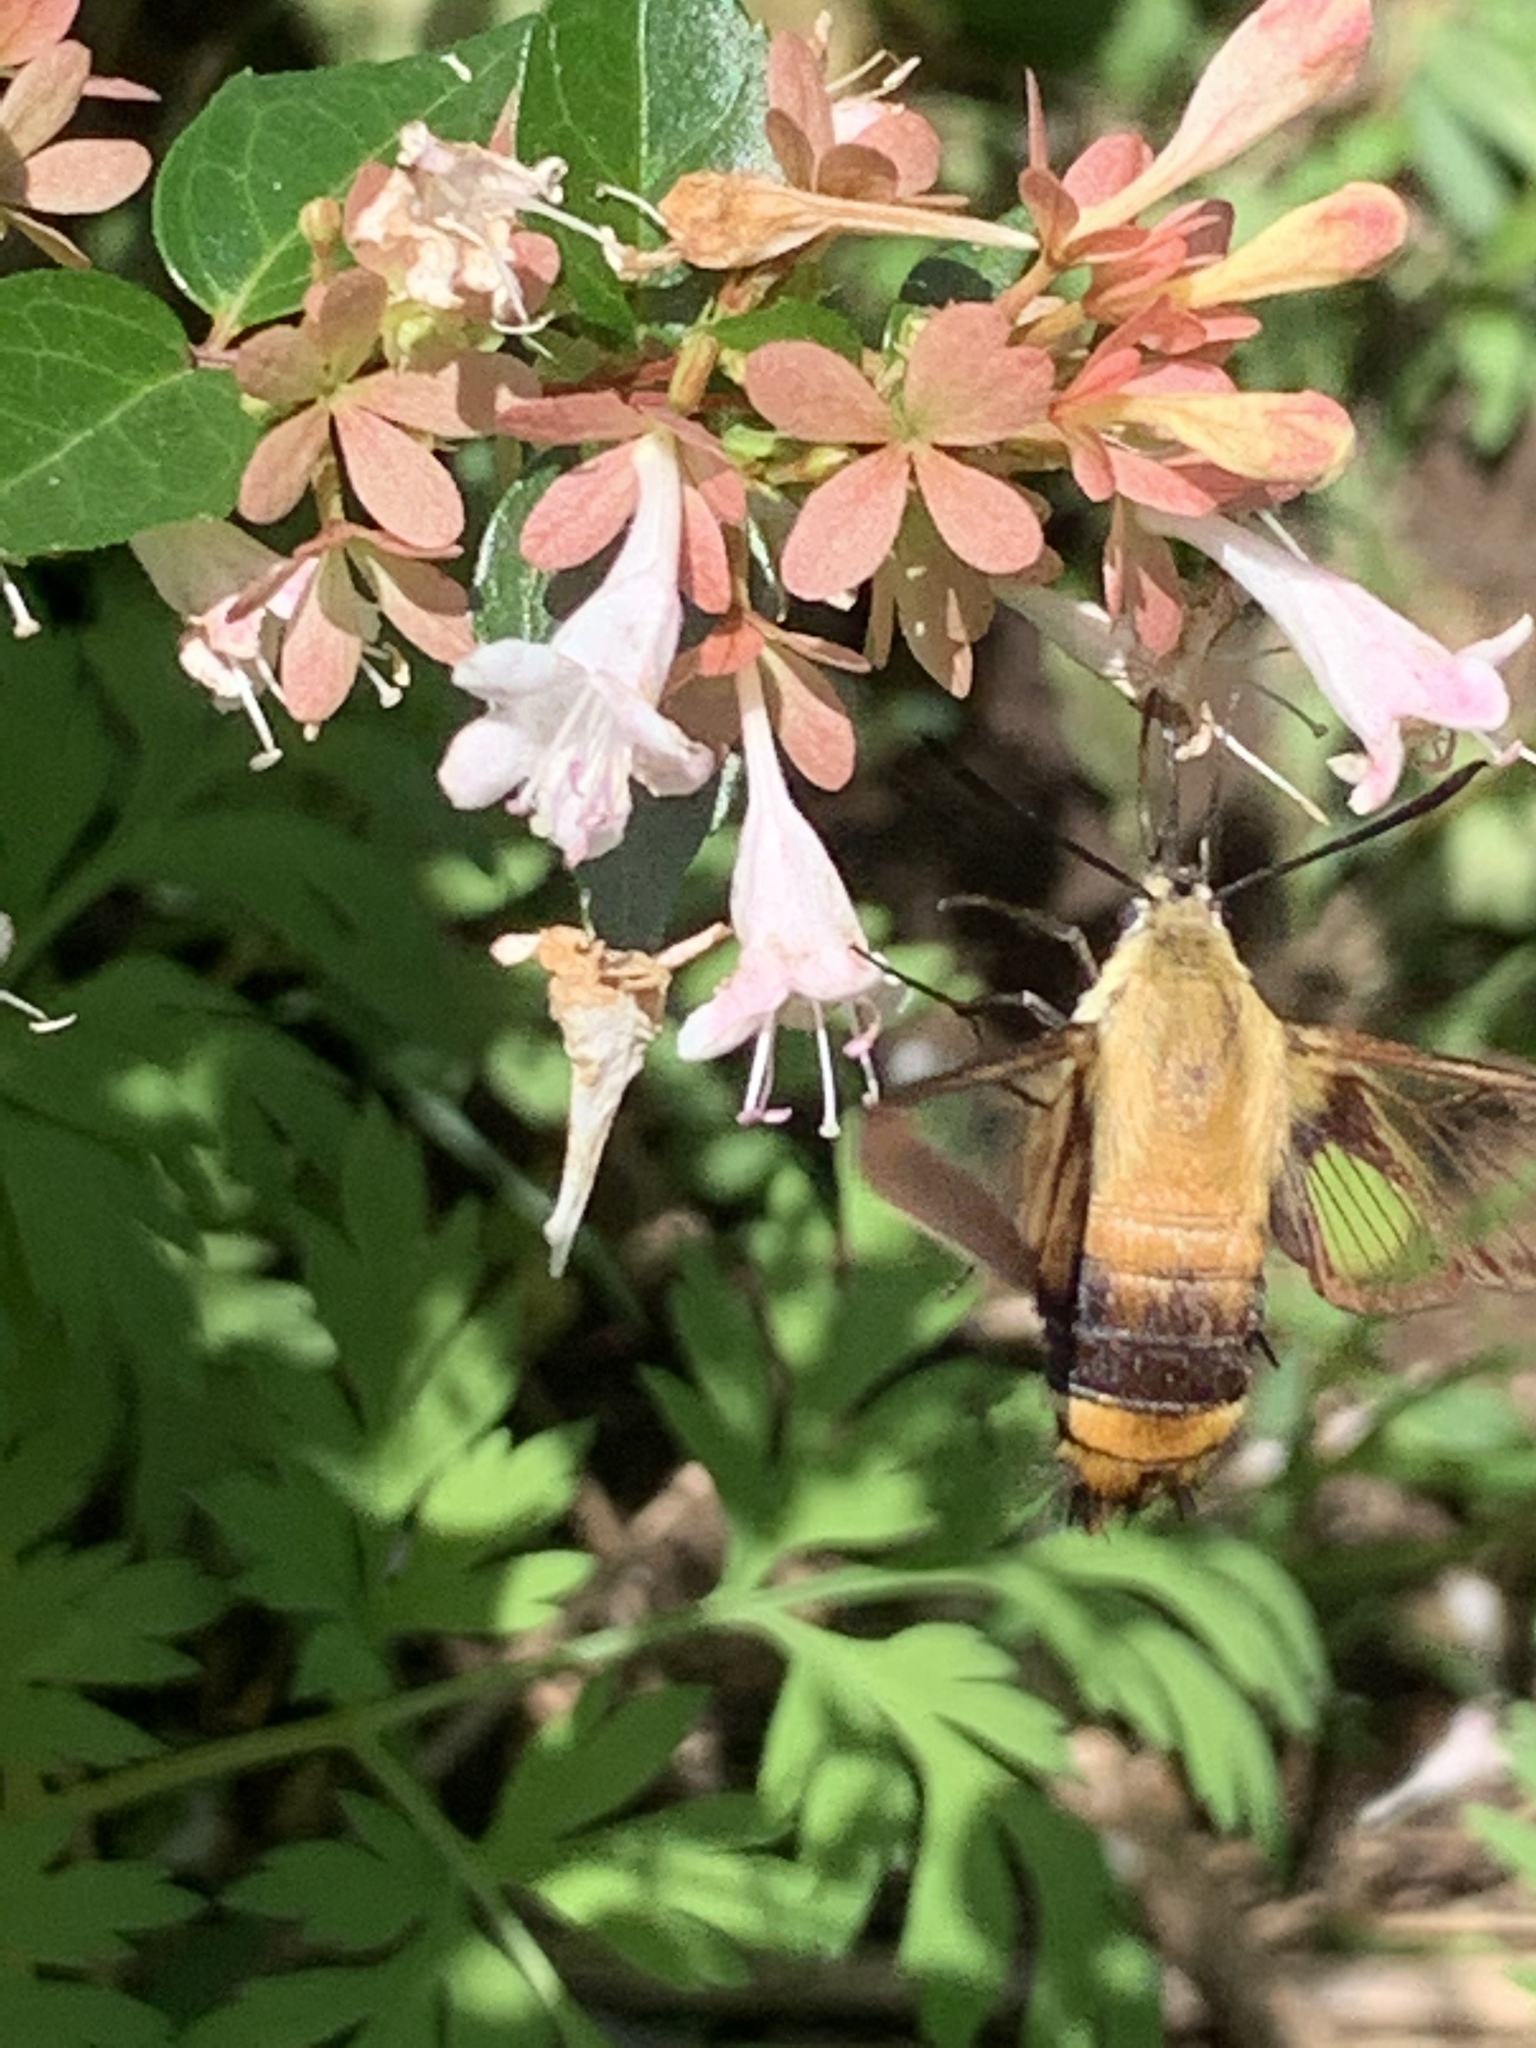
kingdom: Animalia
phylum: Arthropoda
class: Insecta
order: Lepidoptera
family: Sphingidae
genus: Hemaris
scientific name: Hemaris diffinis
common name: Bumblebee moth
